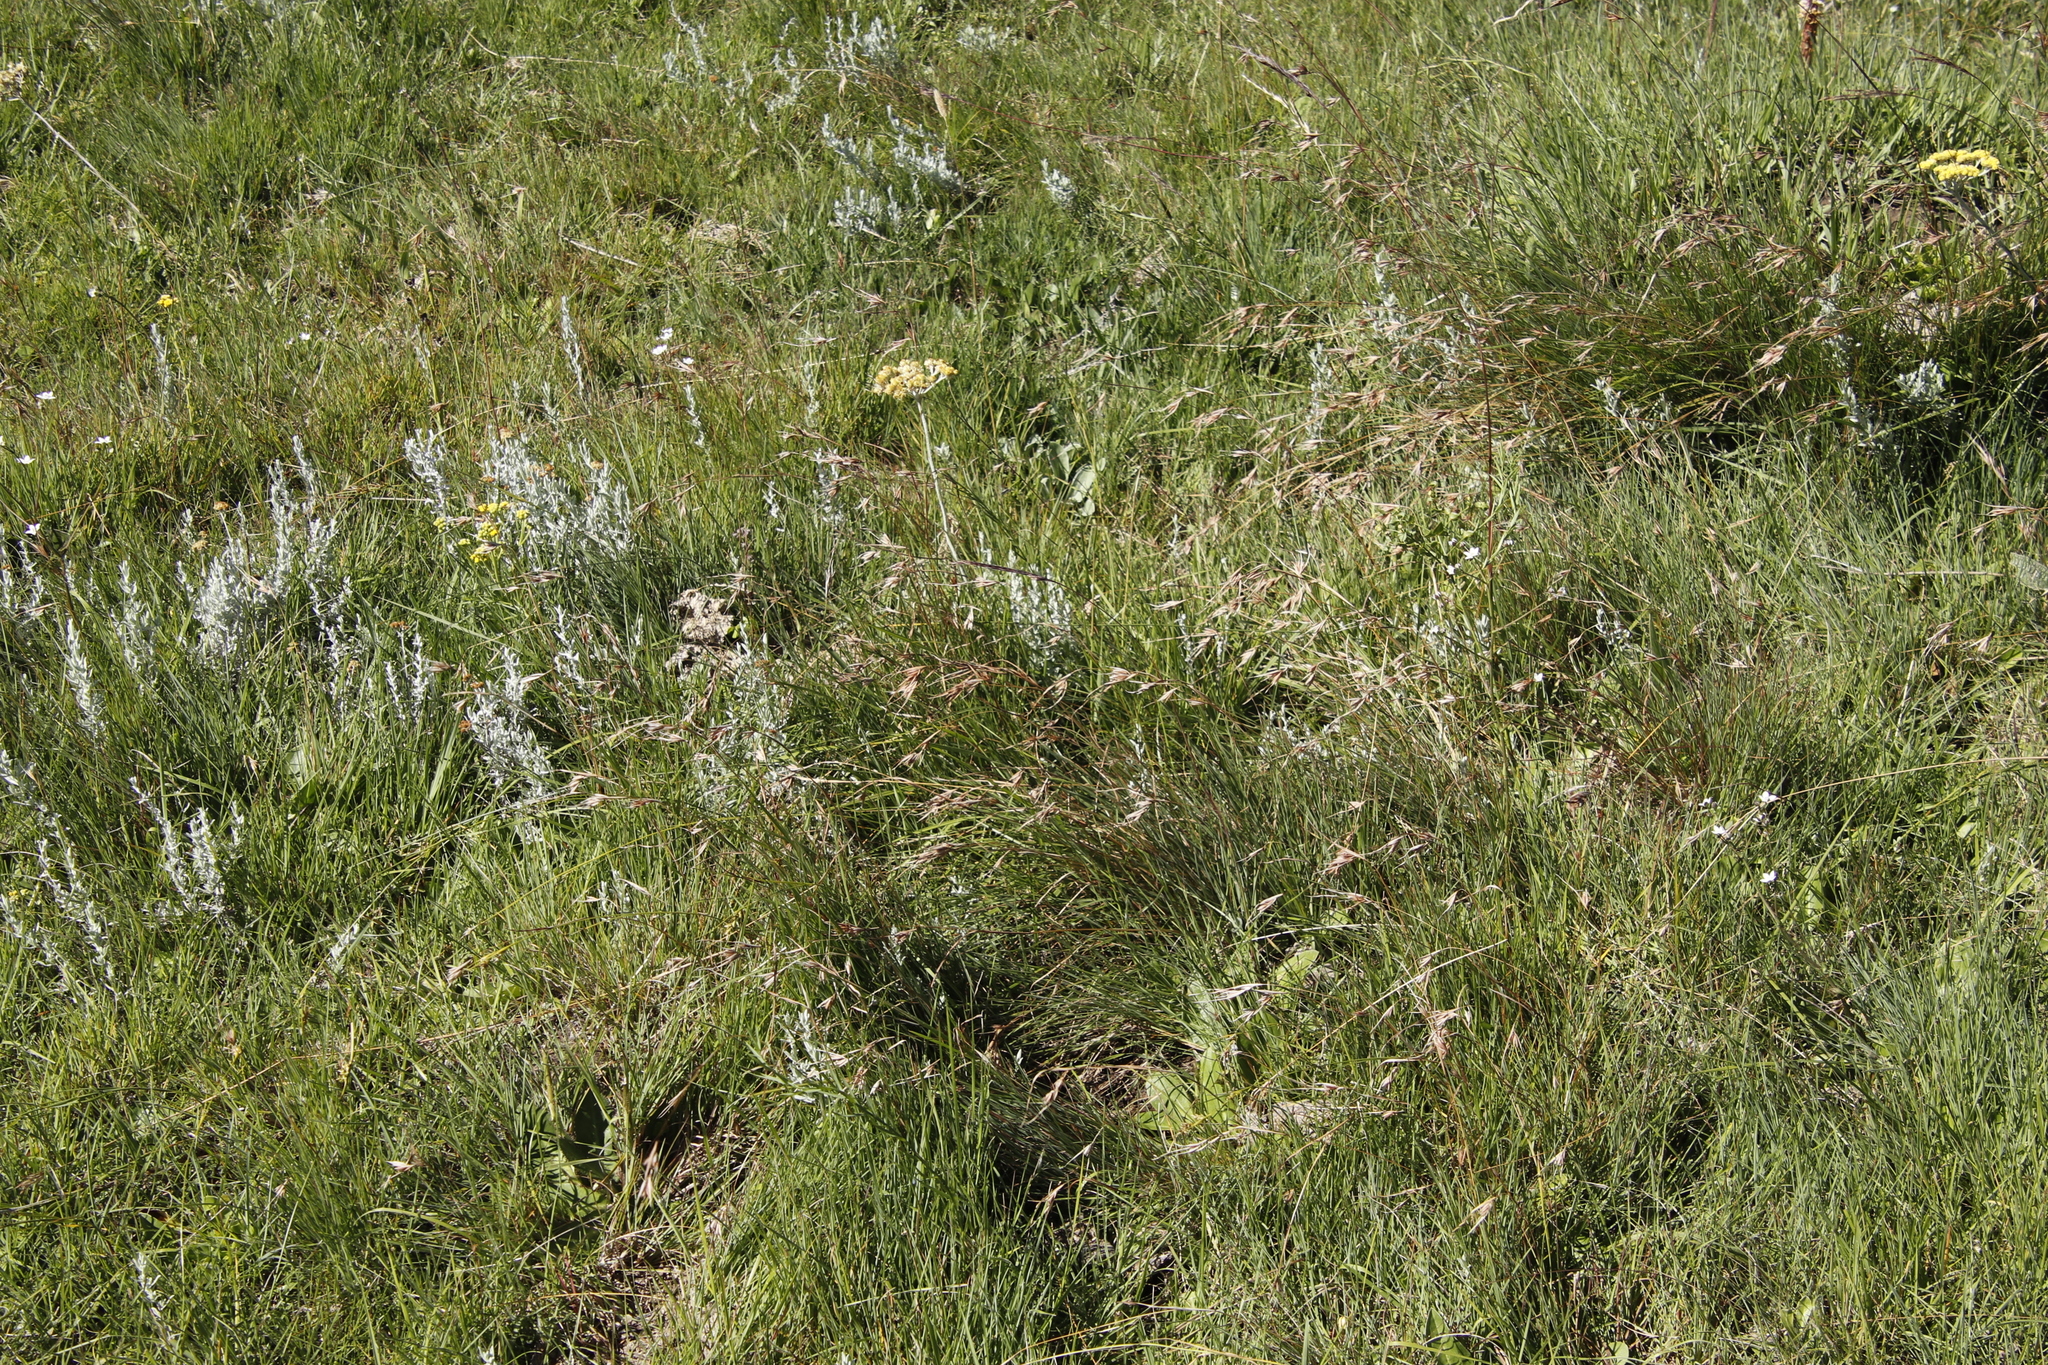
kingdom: Plantae
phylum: Tracheophyta
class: Liliopsida
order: Poales
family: Poaceae
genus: Themeda
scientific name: Themeda triandra
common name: Kangaroo grass
